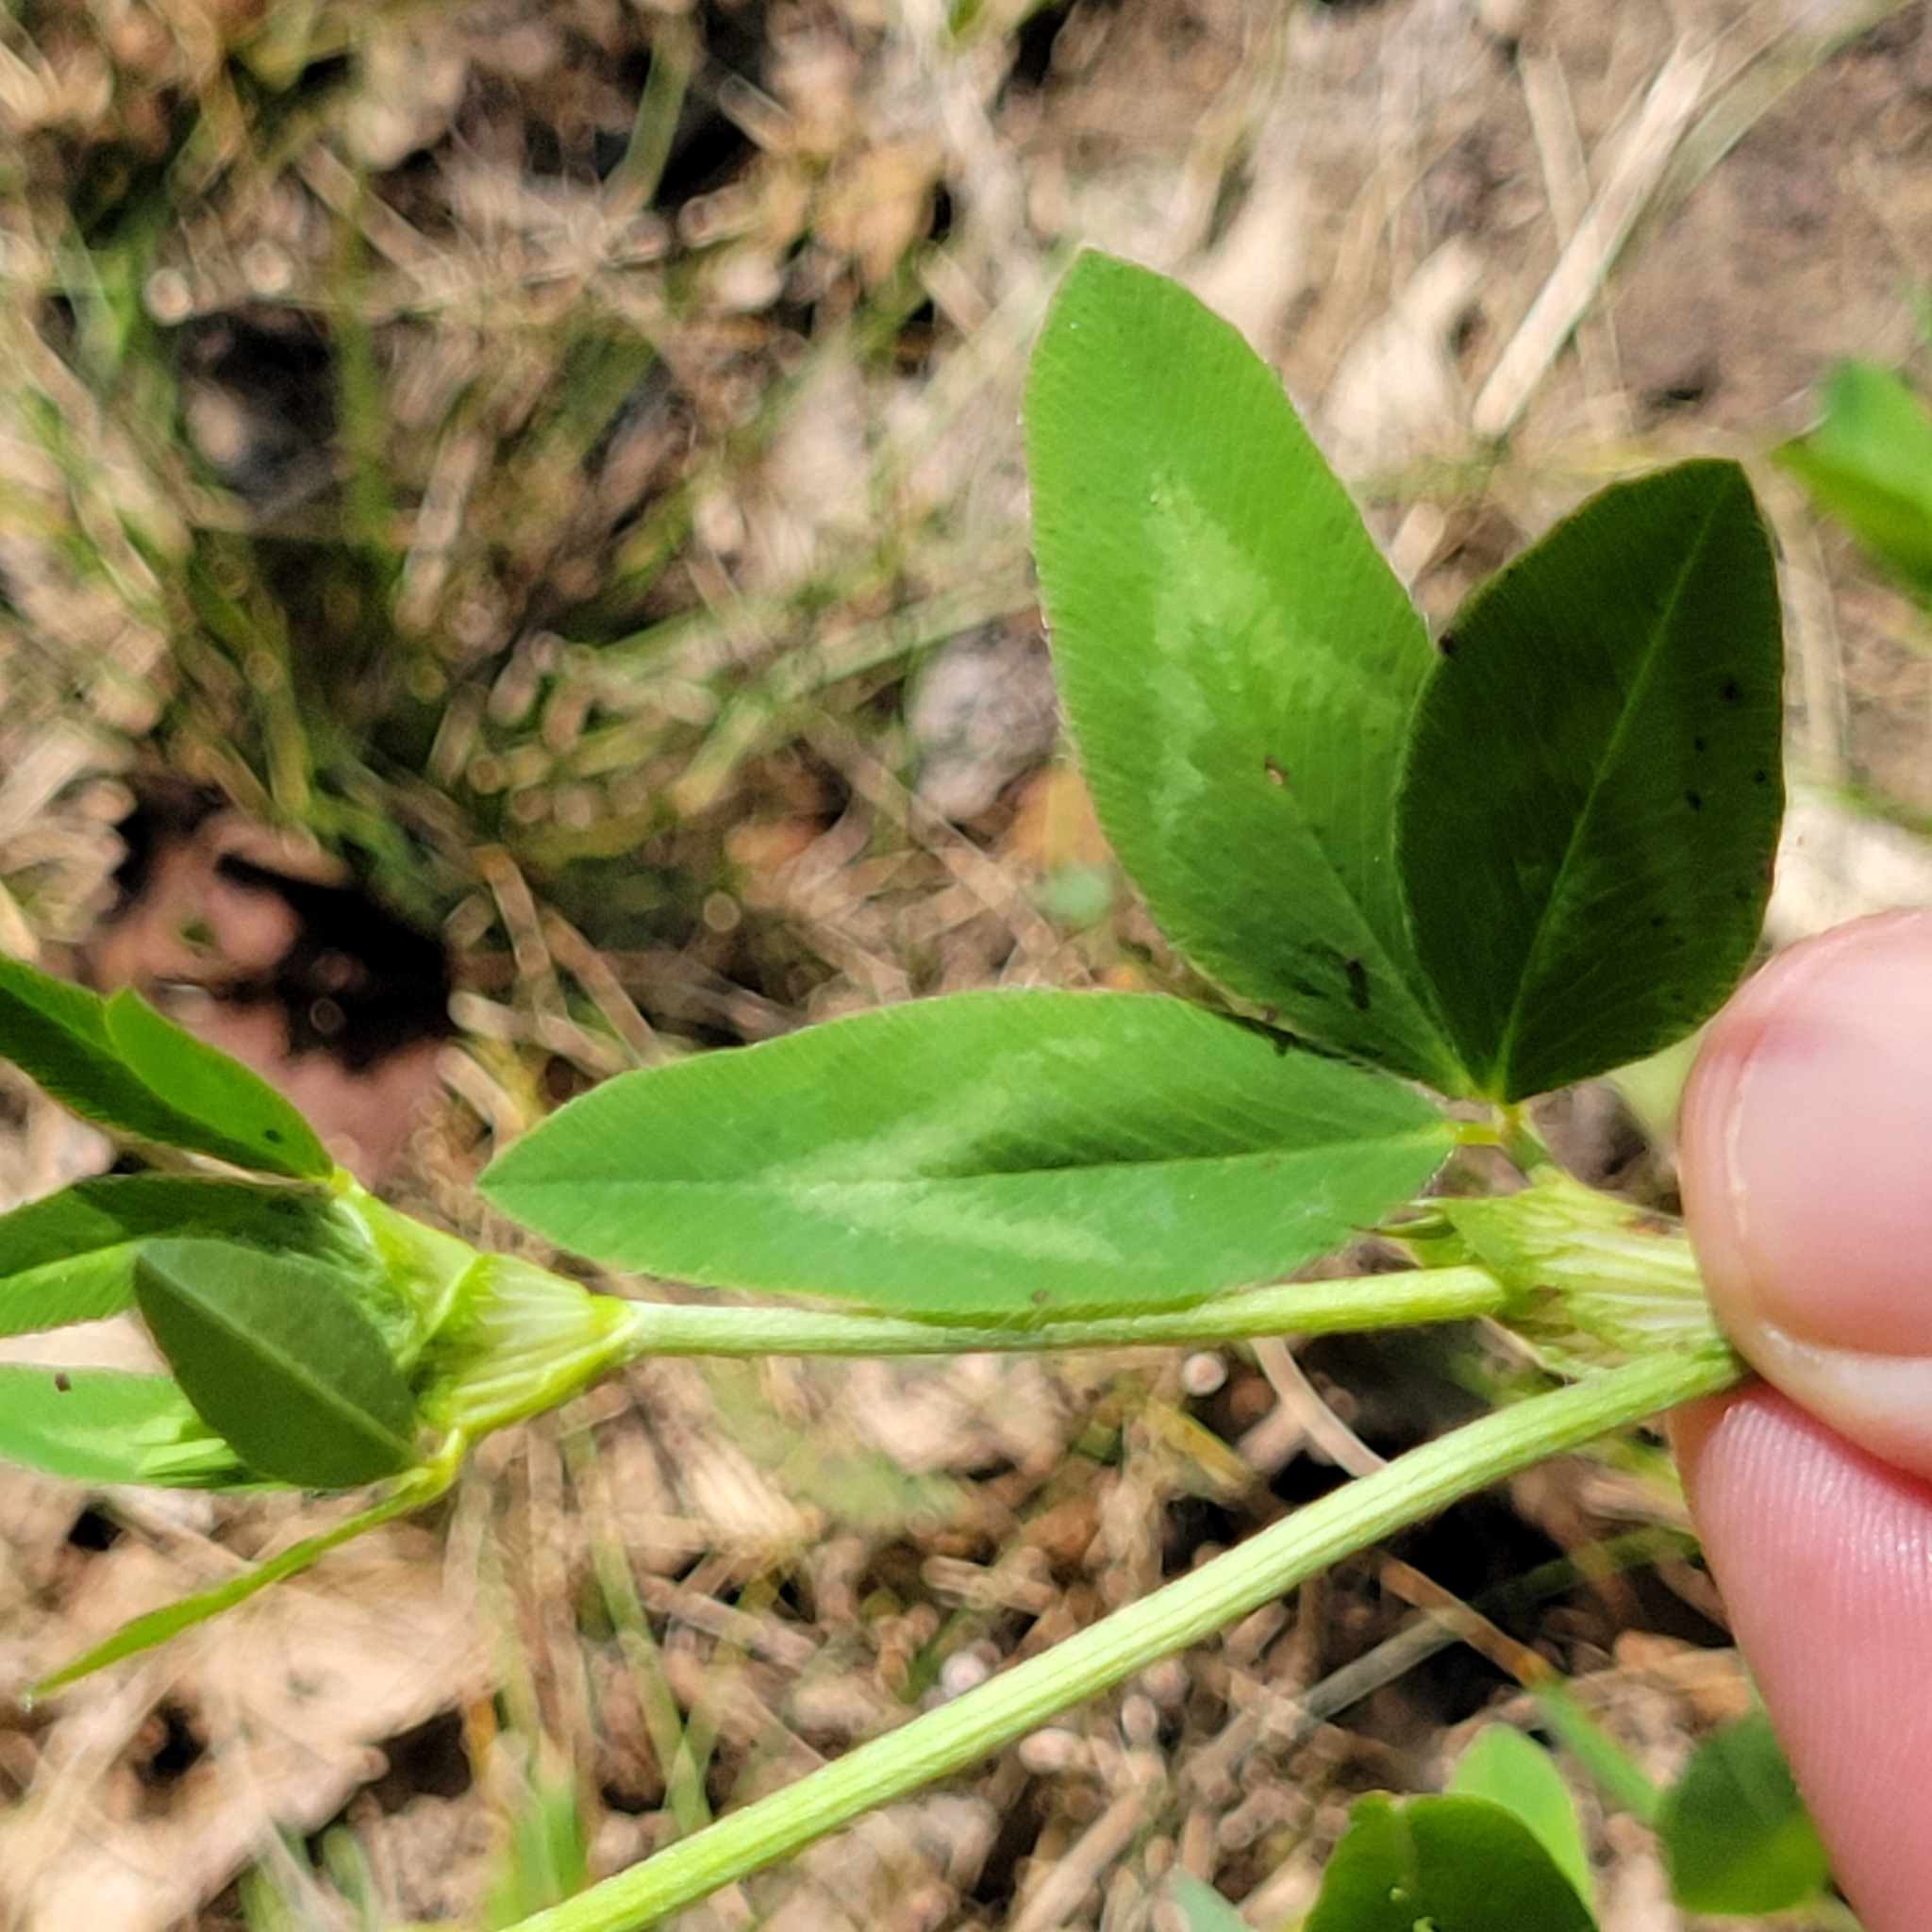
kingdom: Plantae
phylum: Tracheophyta
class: Magnoliopsida
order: Fabales
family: Fabaceae
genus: Trifolium
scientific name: Trifolium pratense
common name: Red clover
